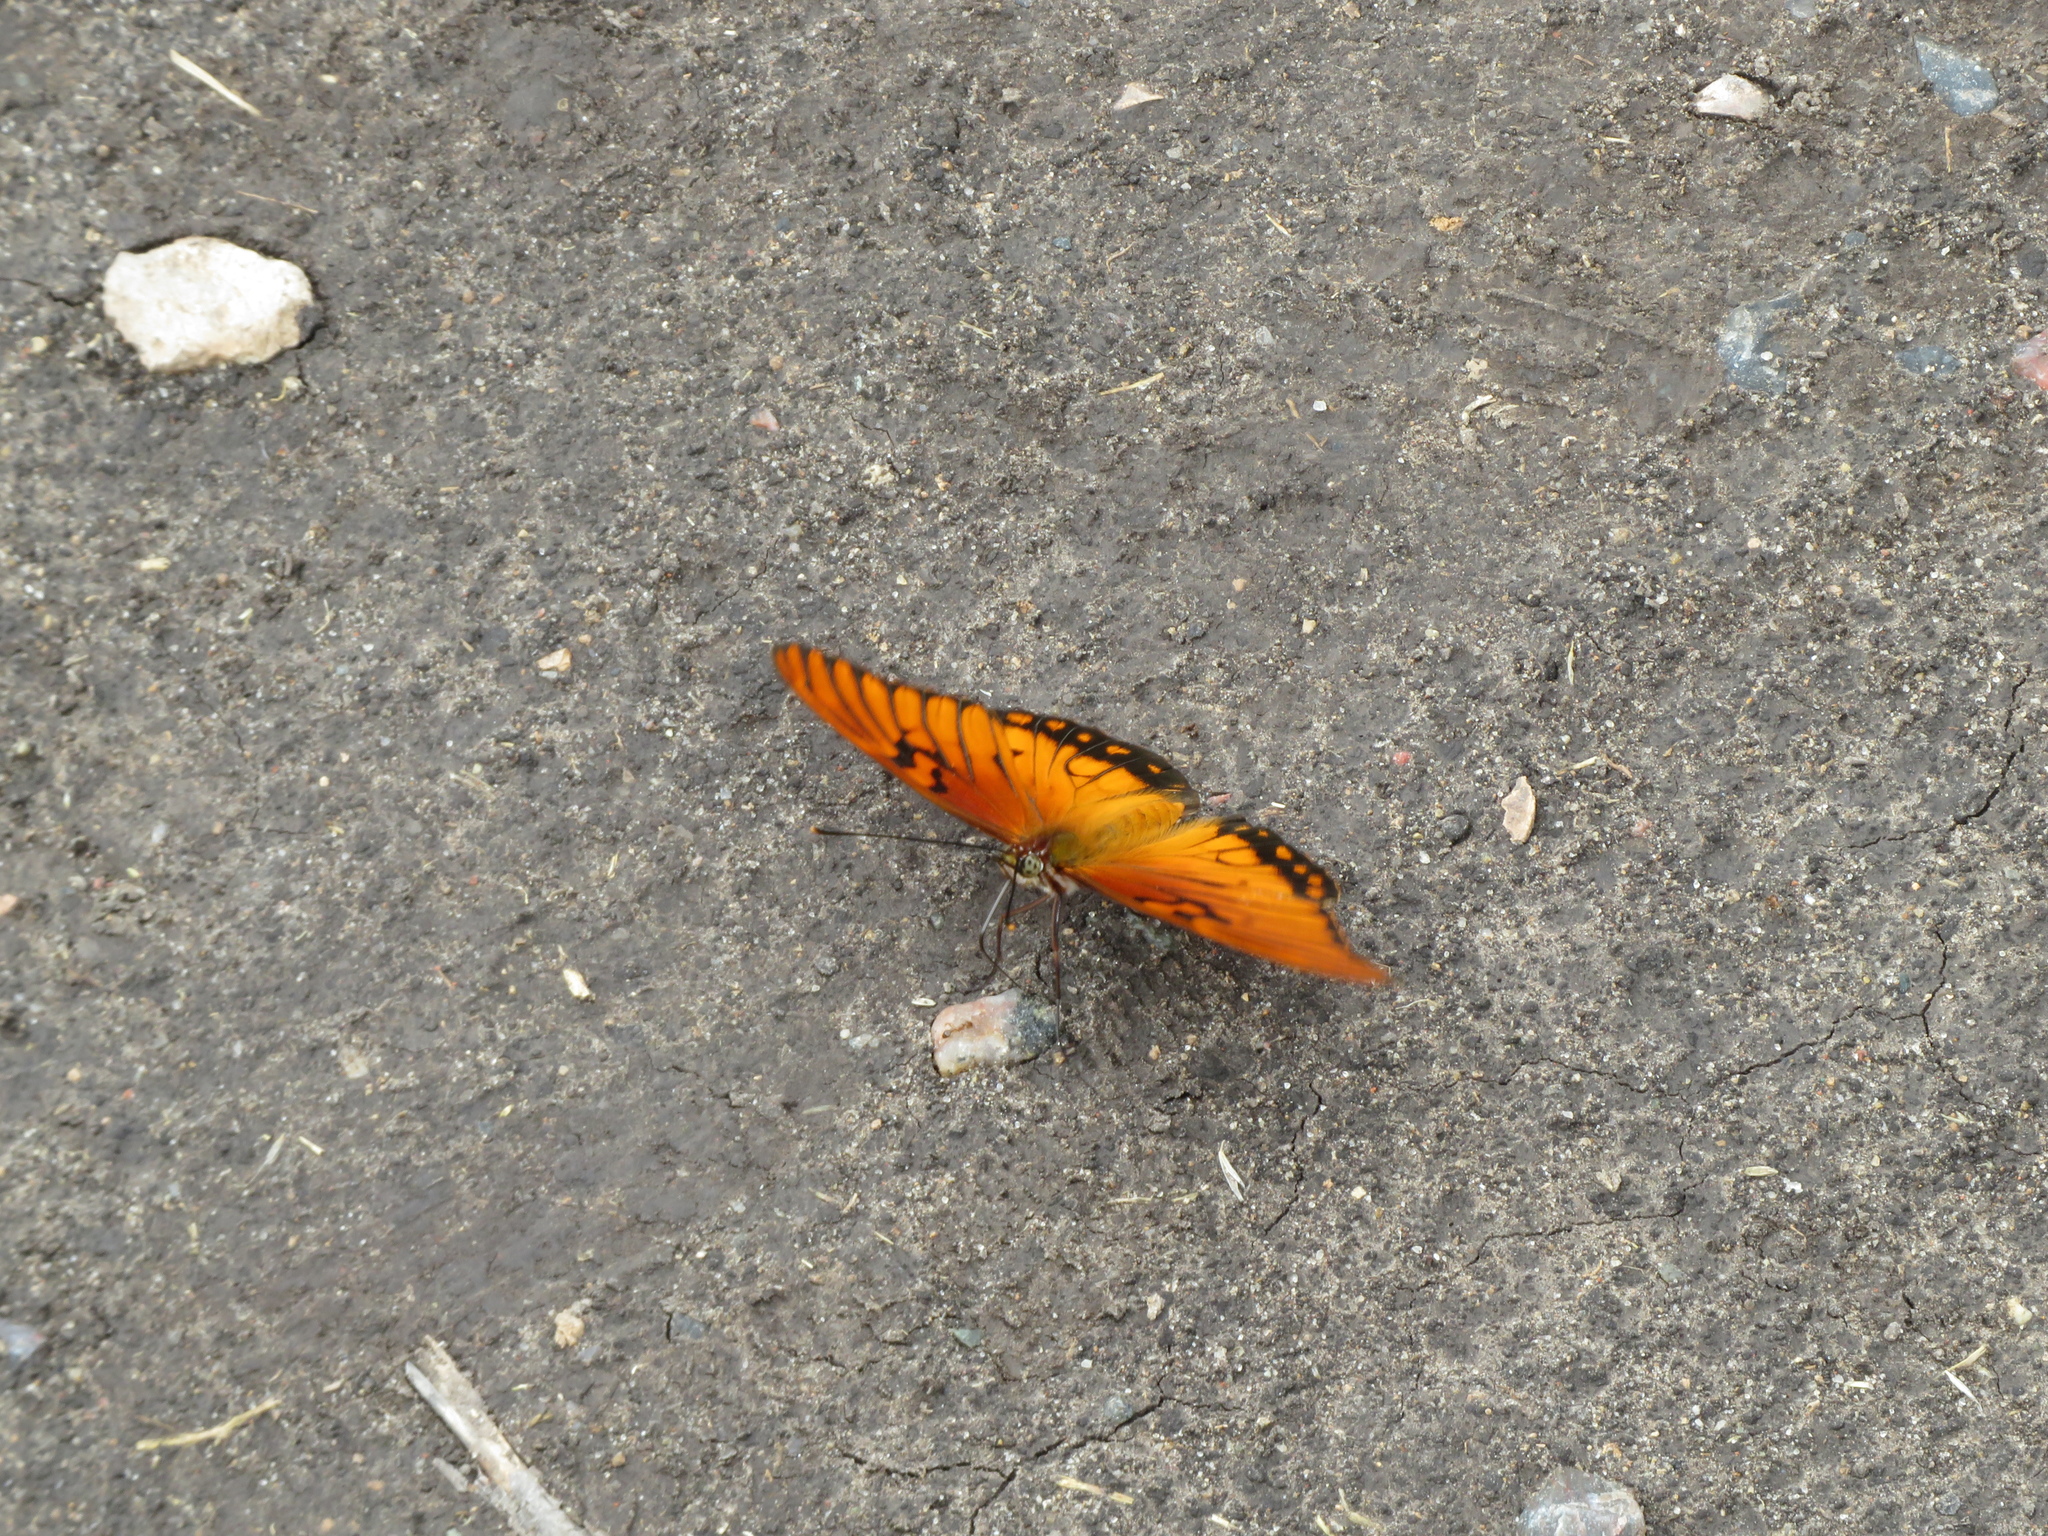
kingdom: Animalia
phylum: Arthropoda
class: Insecta
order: Lepidoptera
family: Nymphalidae
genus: Dione
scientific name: Dione moneta
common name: Mexican silverspot
